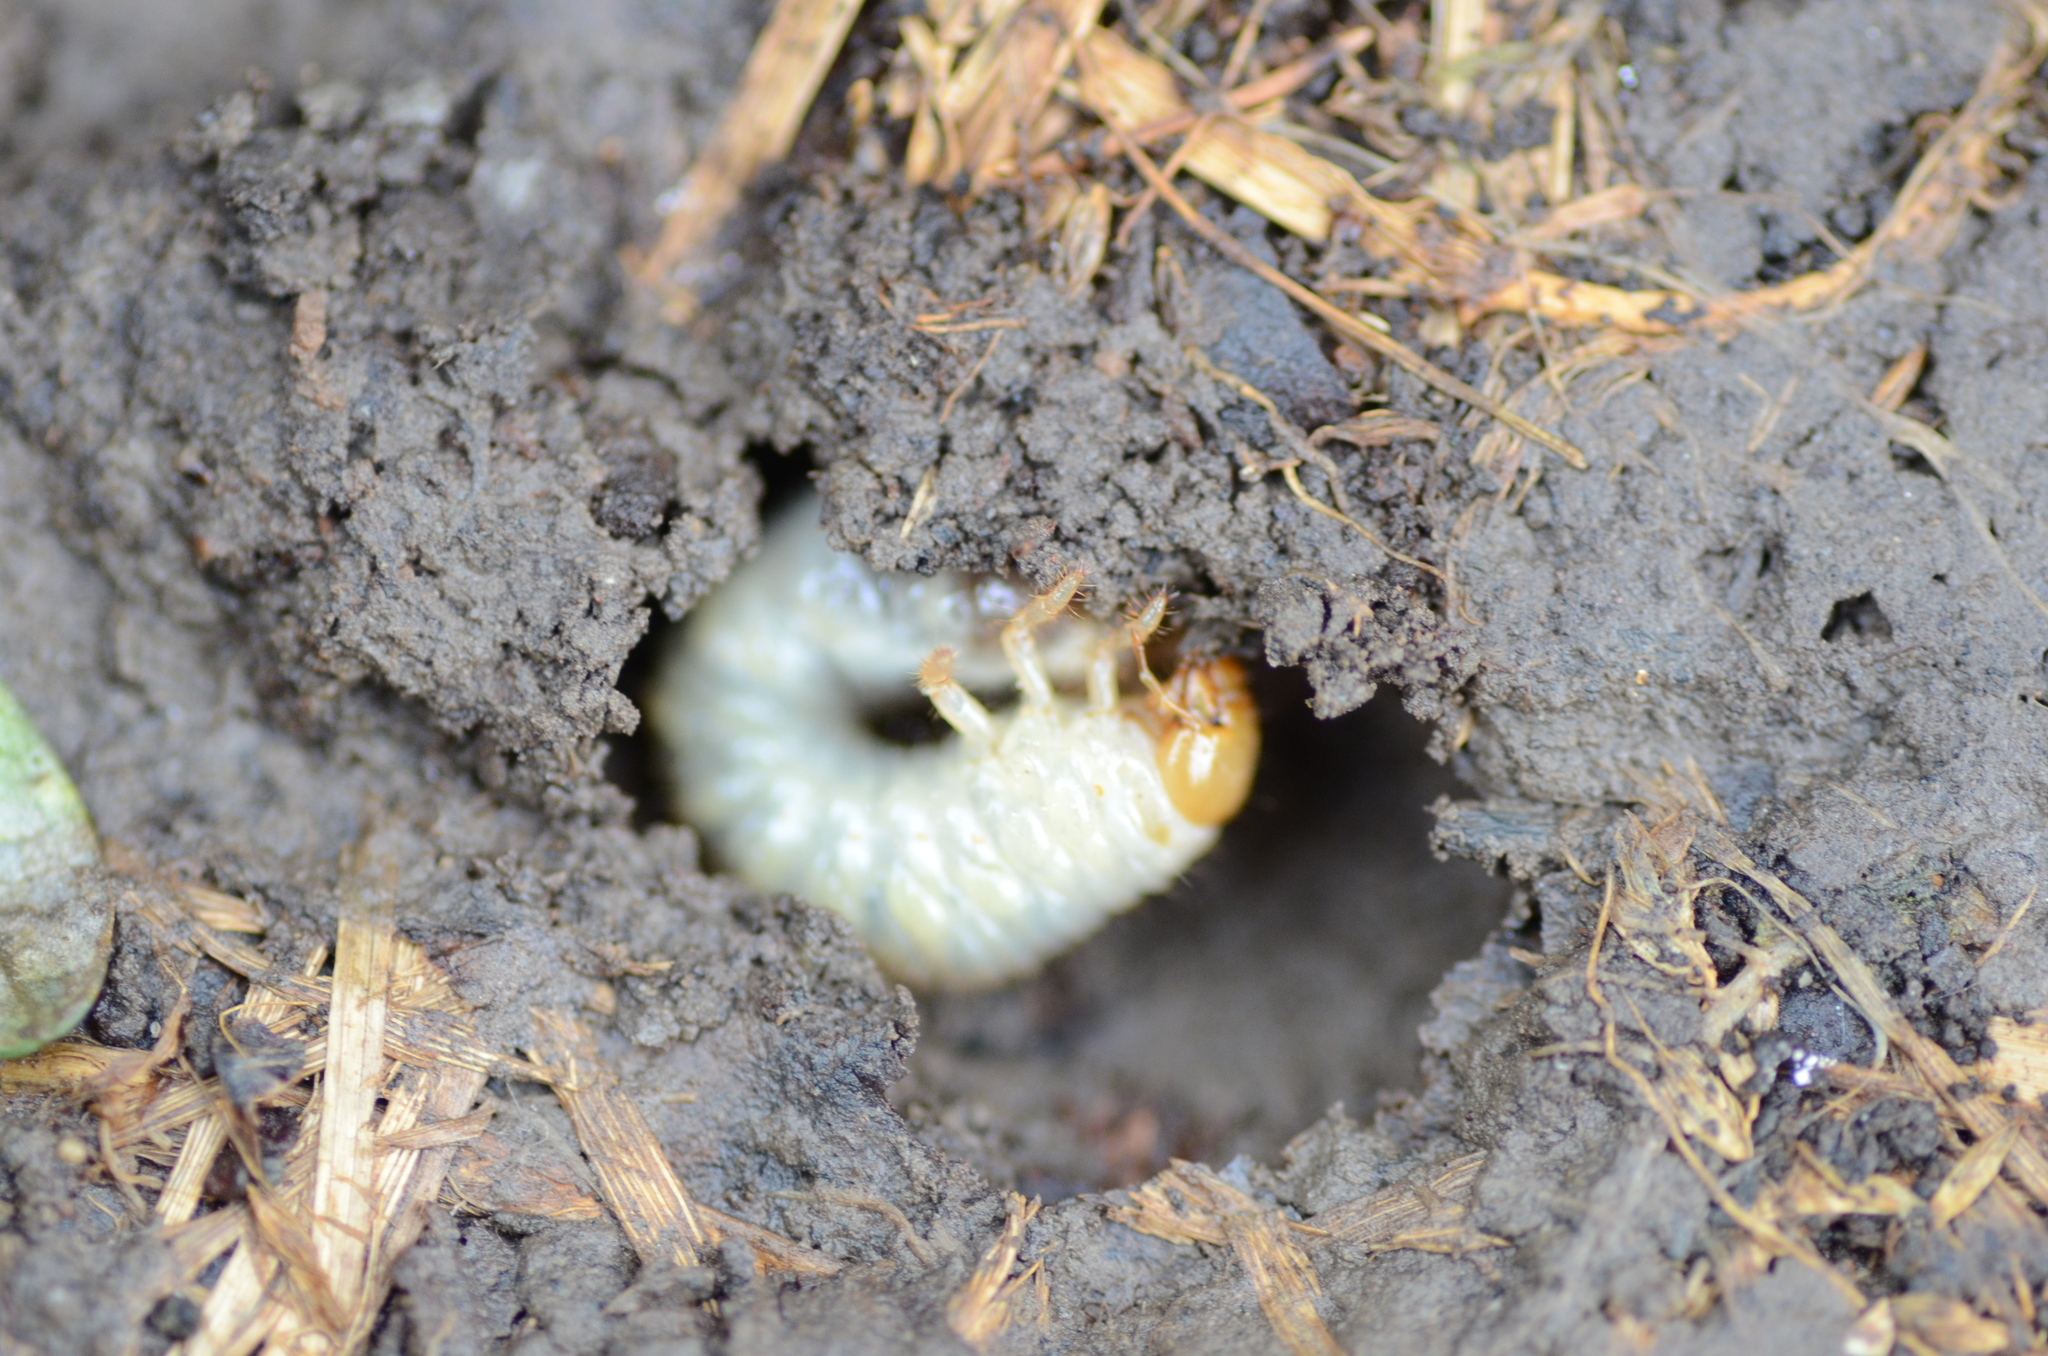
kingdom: Animalia
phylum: Arthropoda
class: Insecta
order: Coleoptera
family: Scarabaeidae
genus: Costelytra
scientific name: Costelytra zealandica
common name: New zealand grass grub
